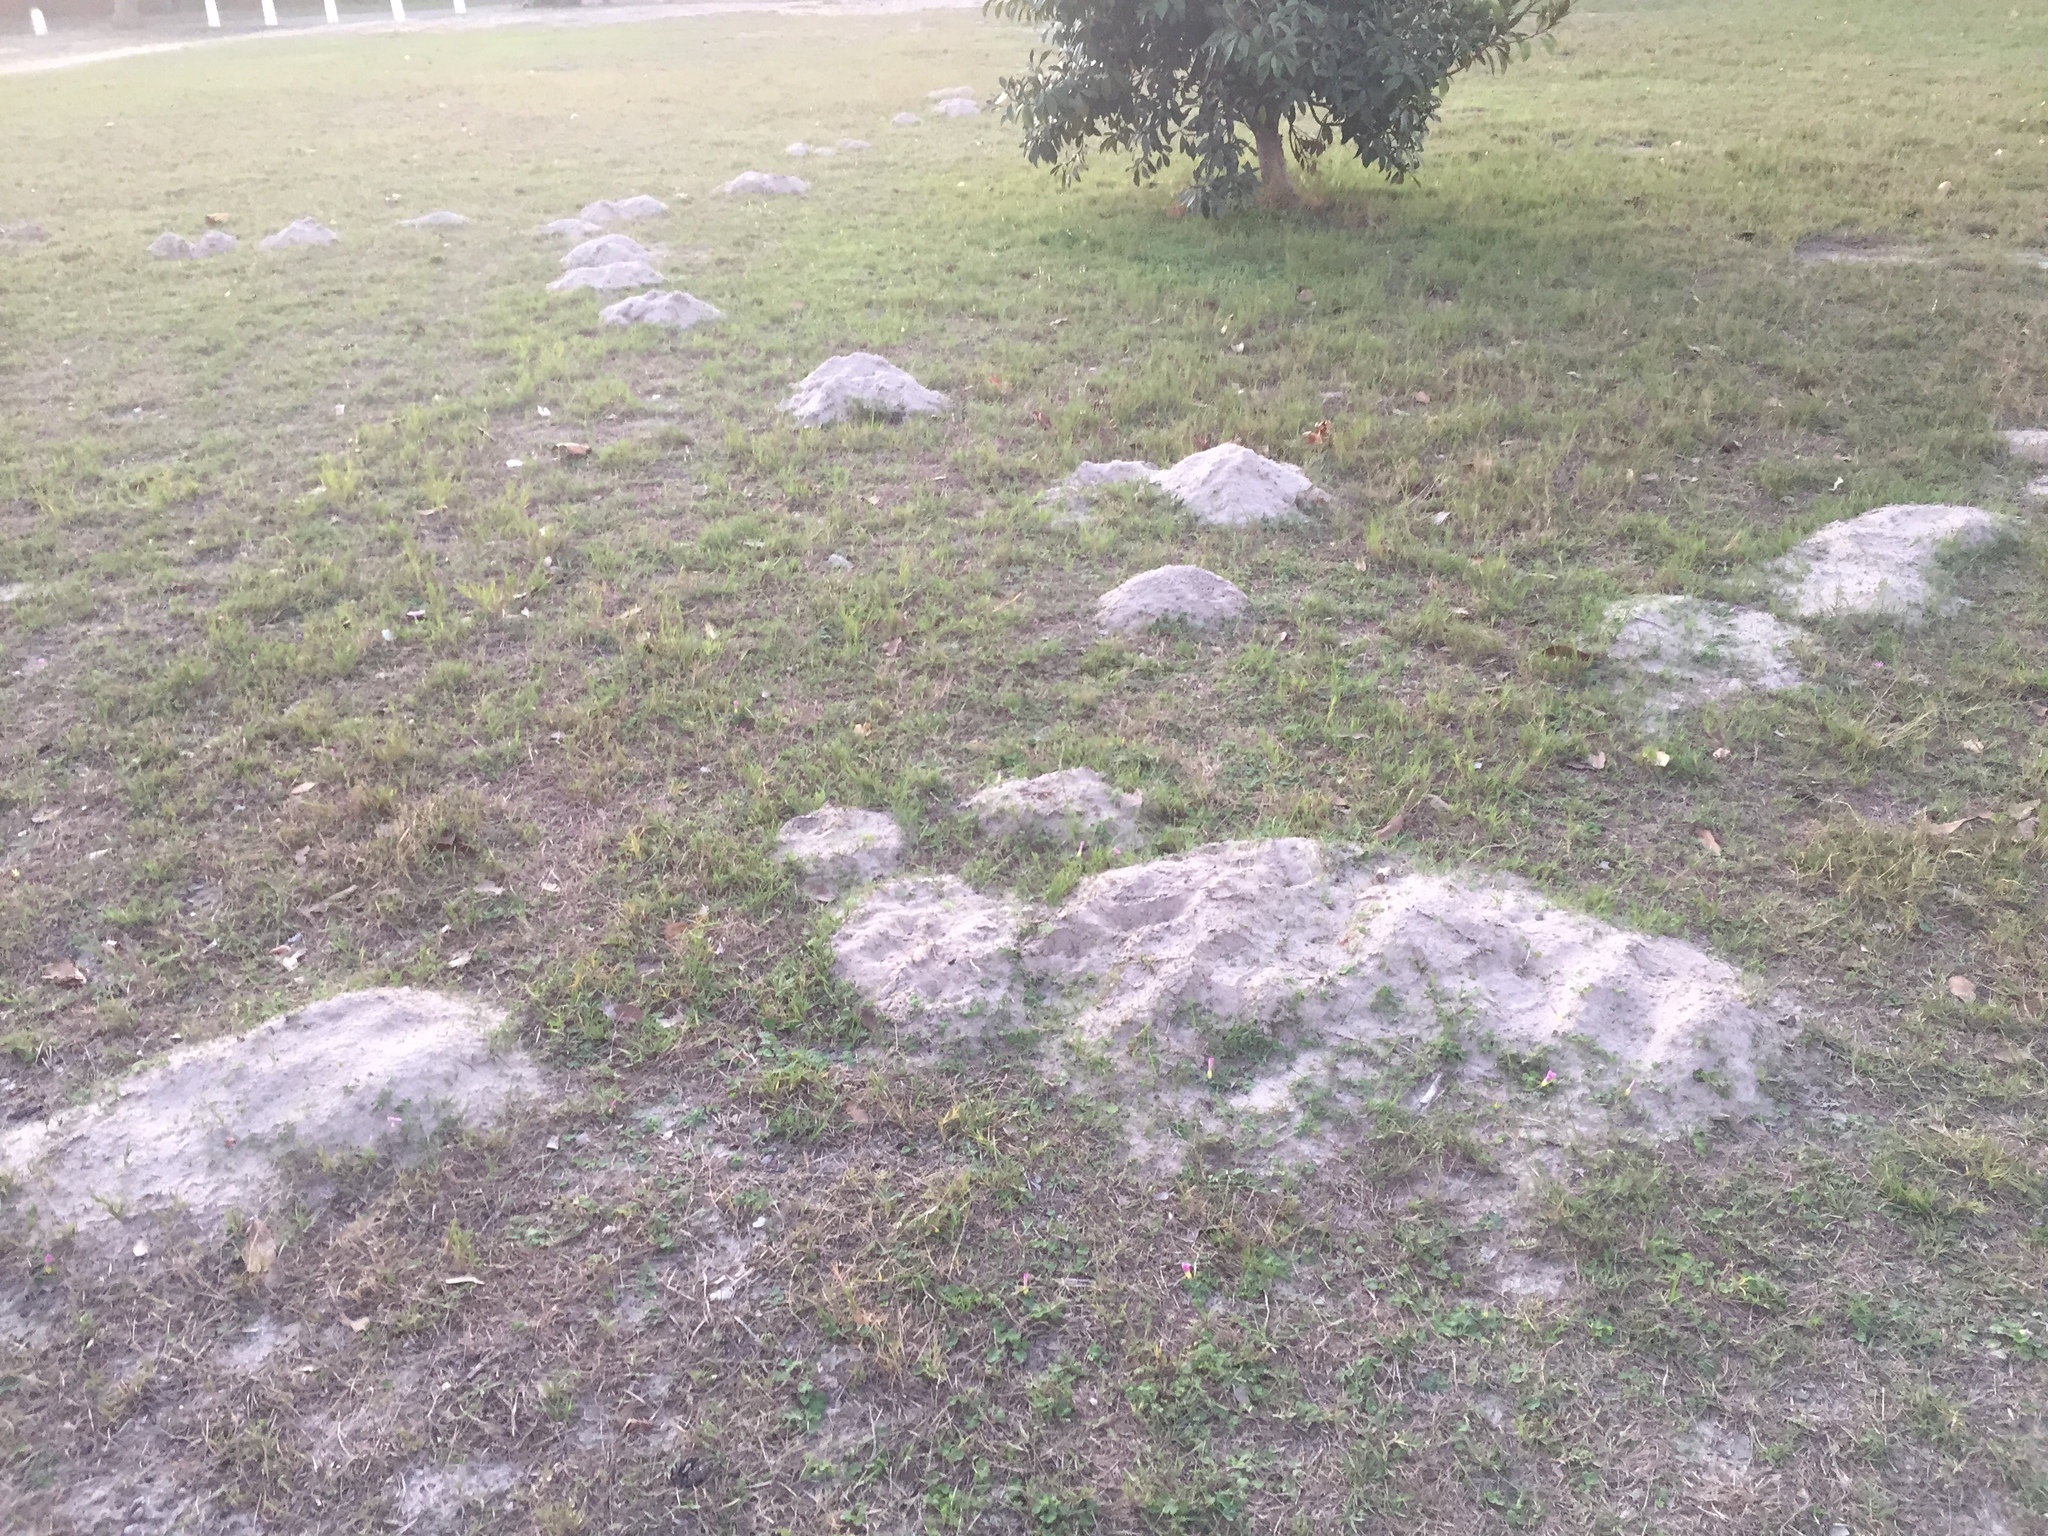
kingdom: Animalia
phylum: Chordata
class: Mammalia
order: Rodentia
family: Bathyergidae
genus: Bathyergus
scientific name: Bathyergus suillus
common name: Cape dune mole rat
